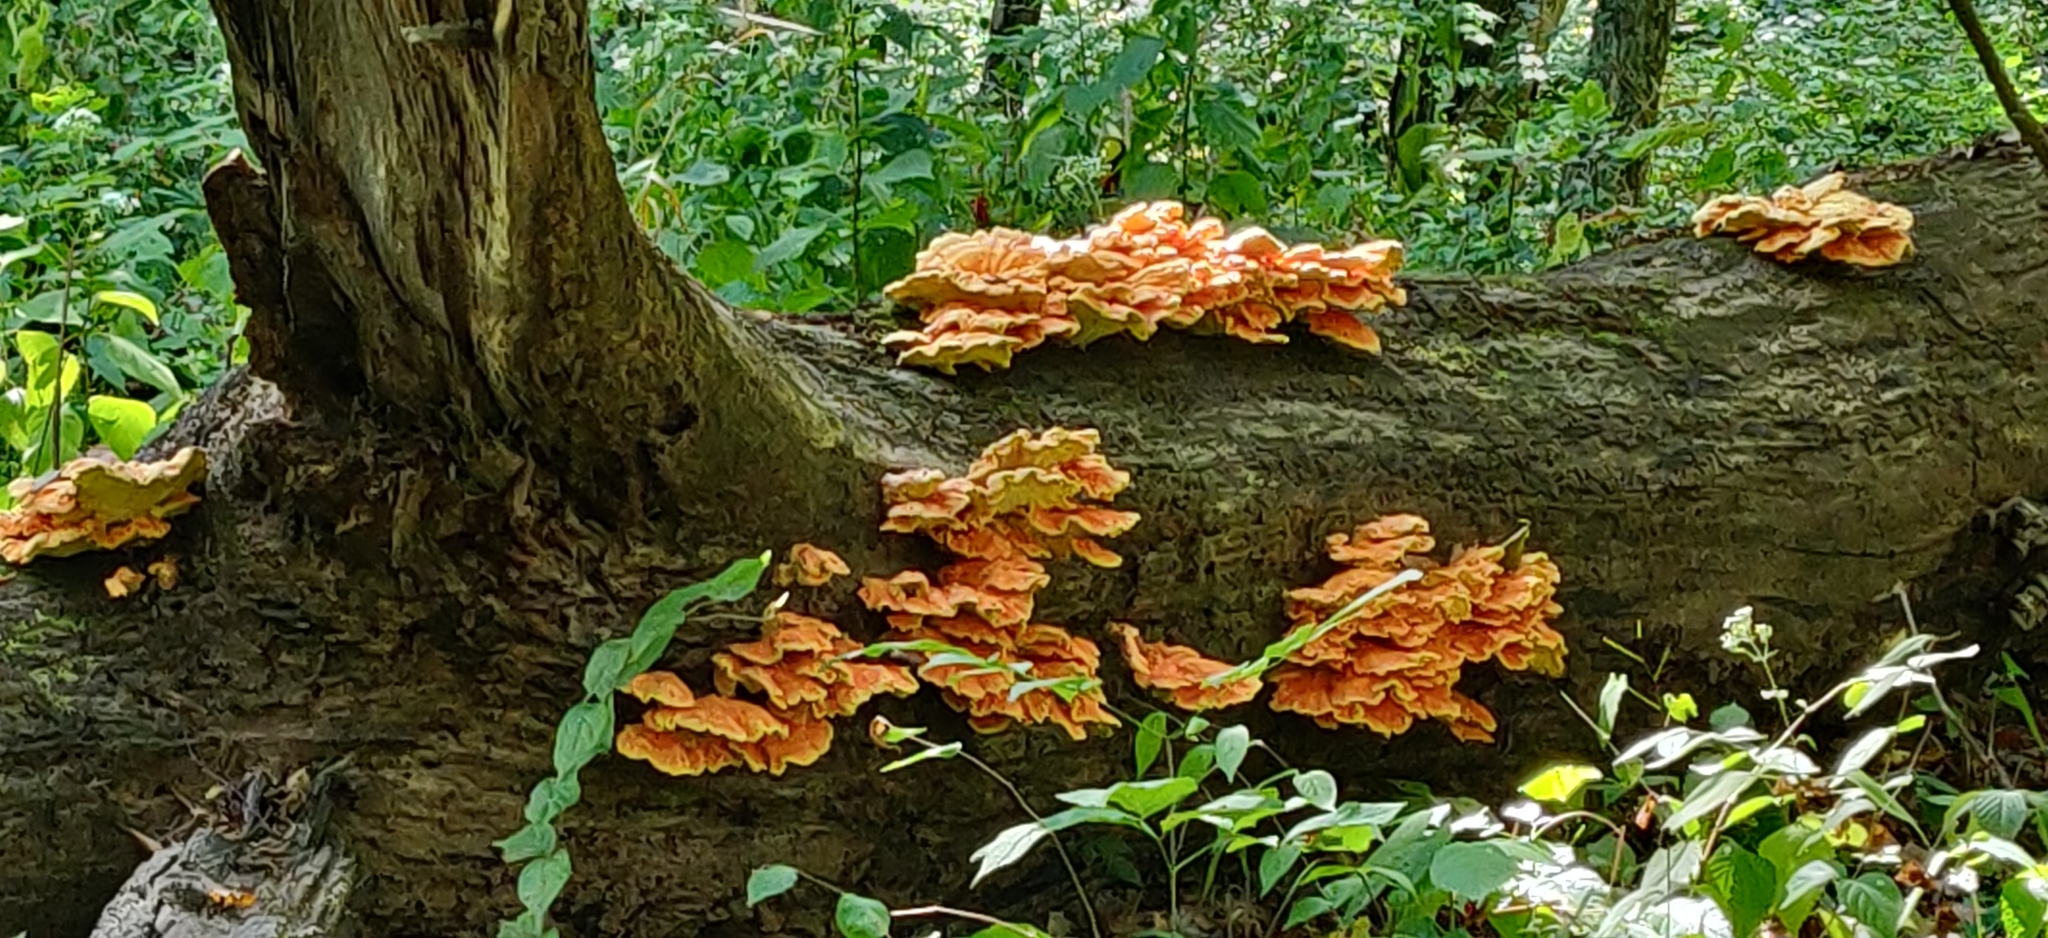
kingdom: Fungi
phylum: Basidiomycota
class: Agaricomycetes
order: Polyporales
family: Laetiporaceae
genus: Laetiporus
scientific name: Laetiporus sulphureus
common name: Chicken of the woods
